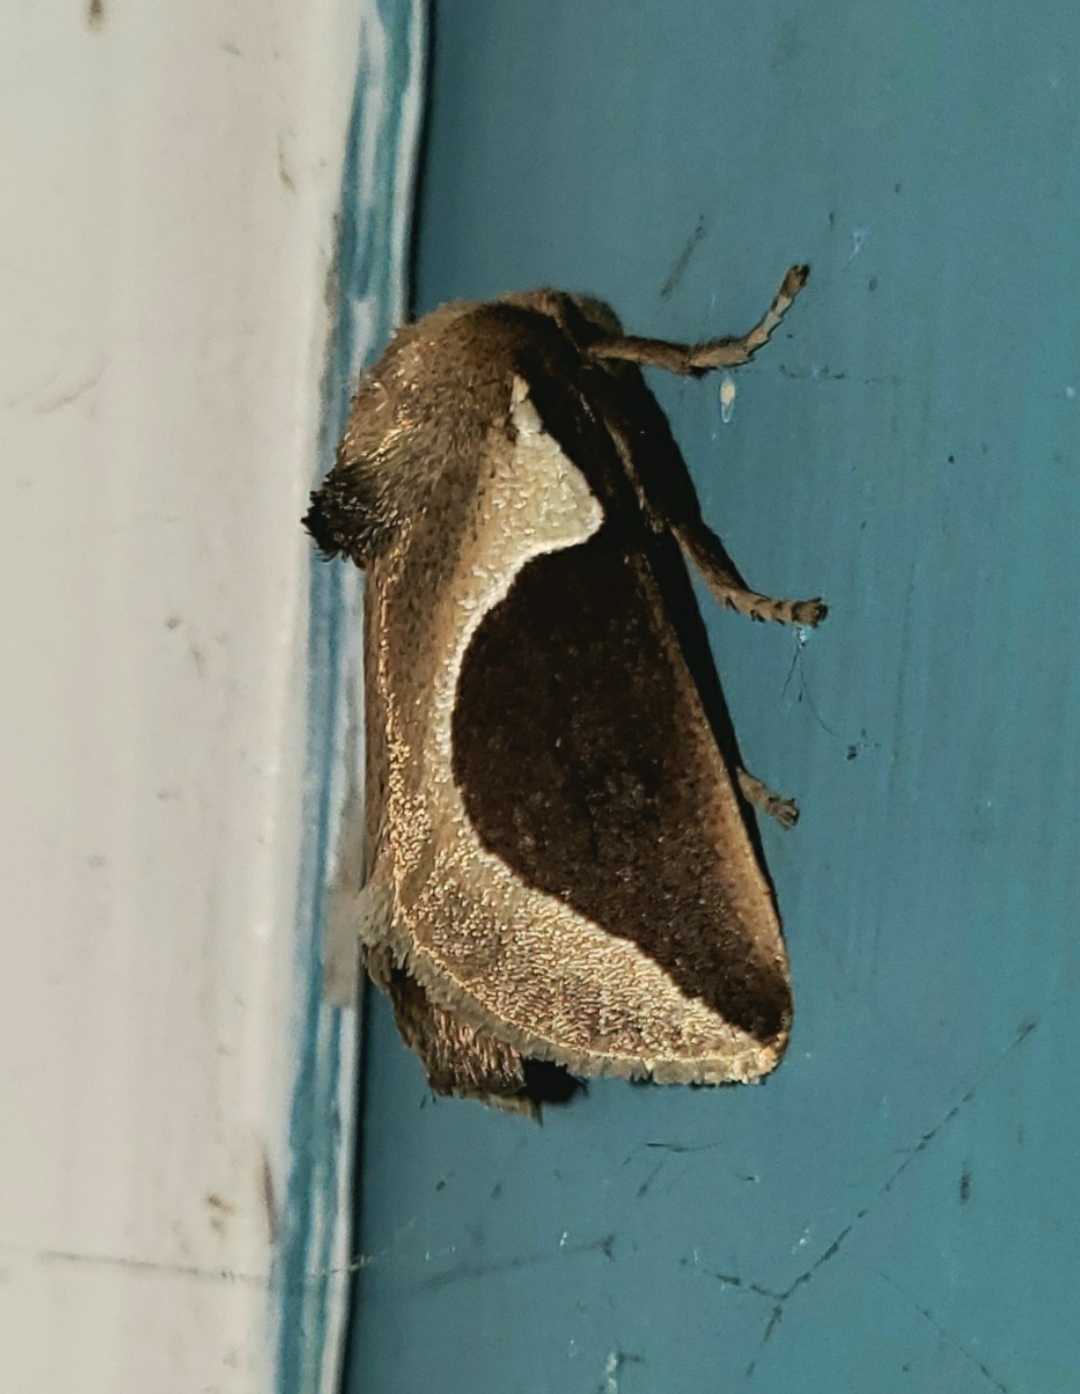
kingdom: Animalia
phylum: Arthropoda
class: Insecta
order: Lepidoptera
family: Limacodidae
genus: Prolimacodes
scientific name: Prolimacodes badia
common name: Skiff moth
